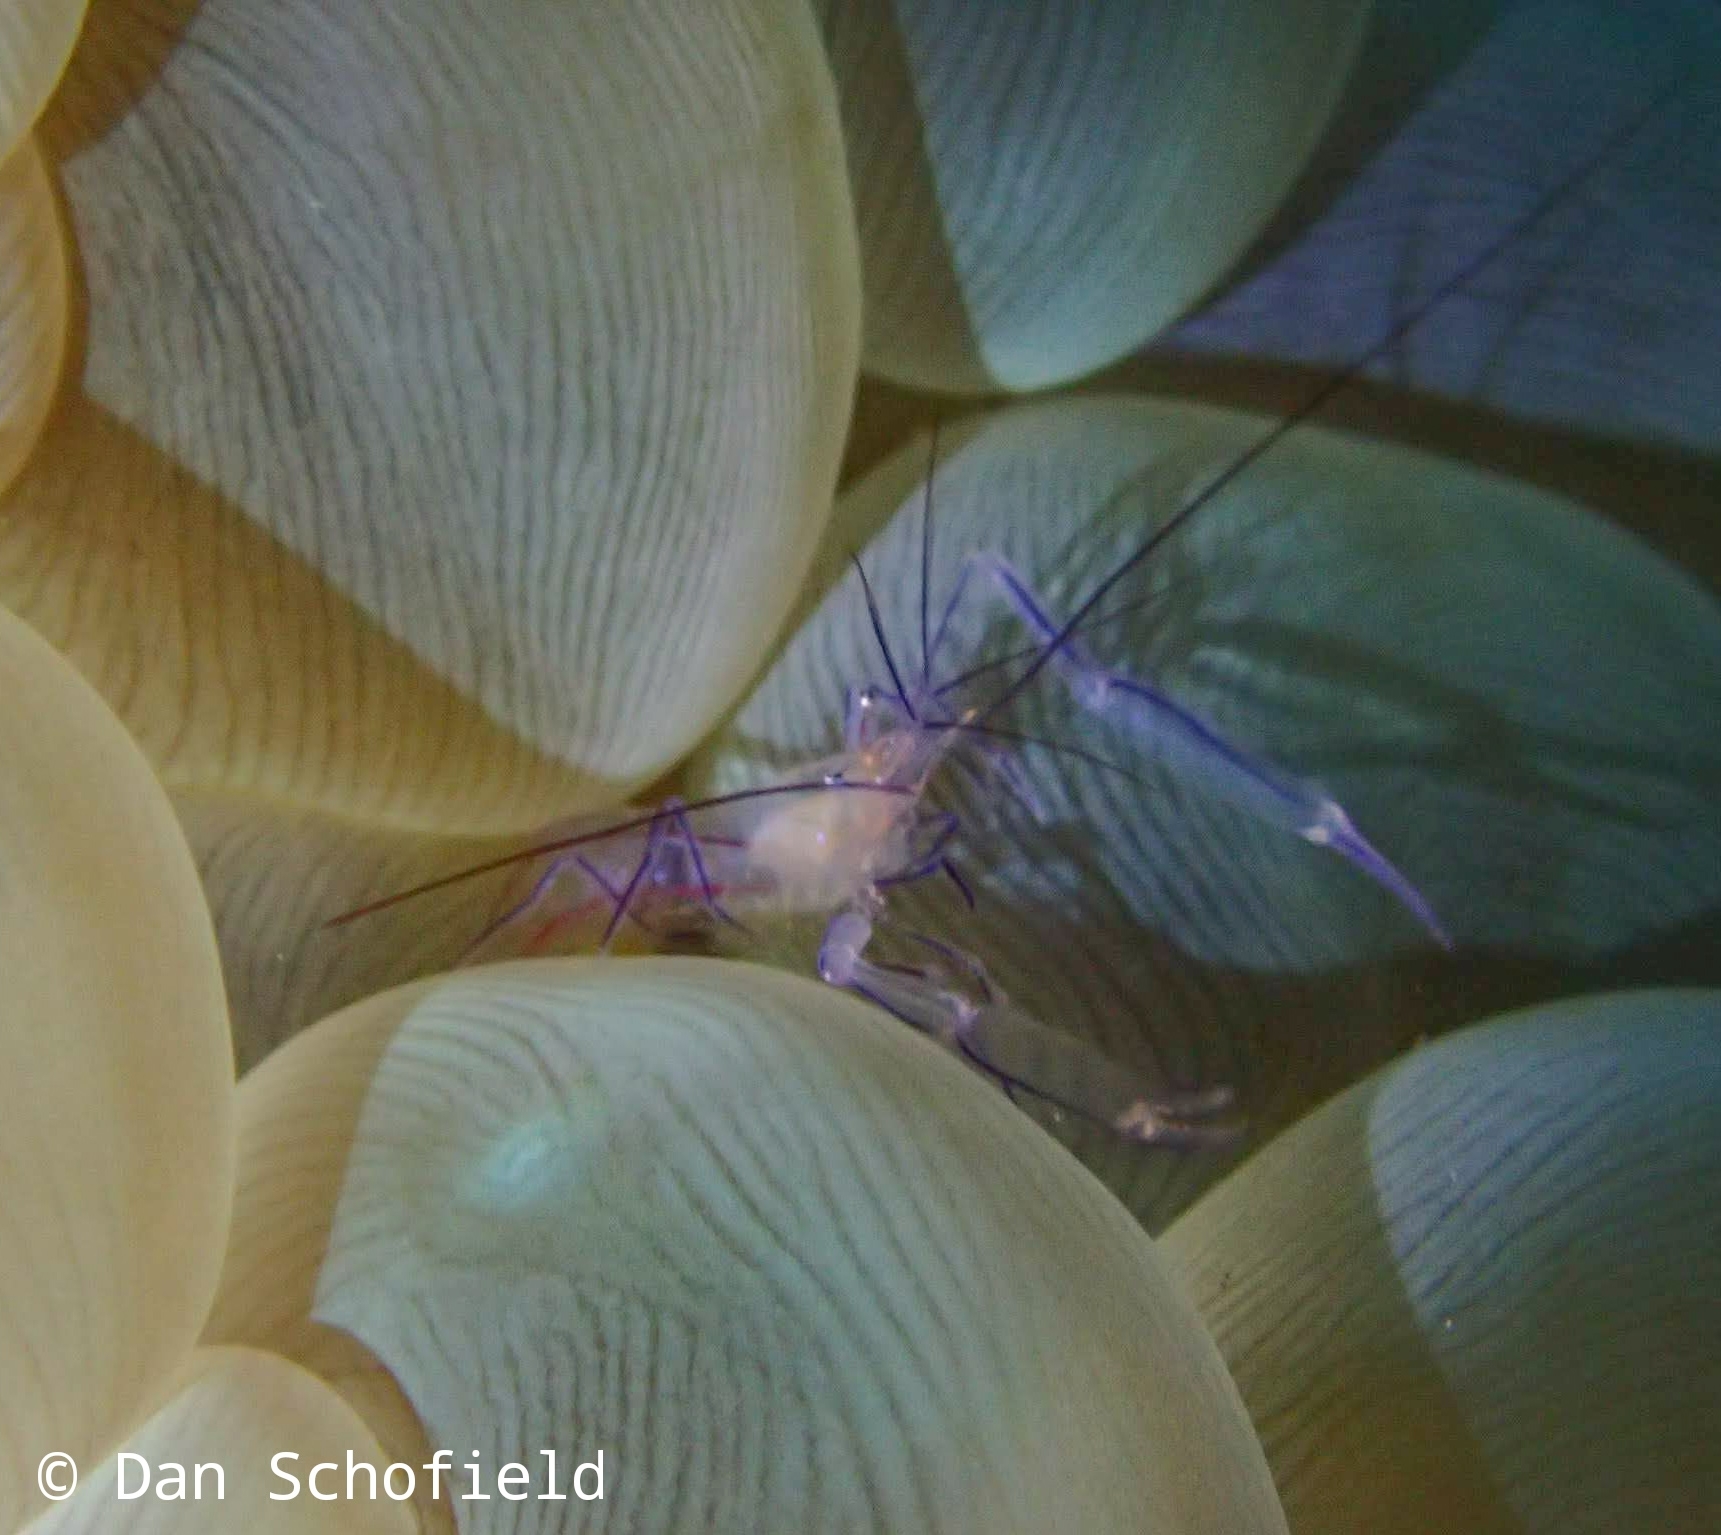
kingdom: Animalia
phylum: Arthropoda
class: Malacostraca
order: Decapoda
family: Palaemonidae
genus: Vir
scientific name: Vir philippinensis
